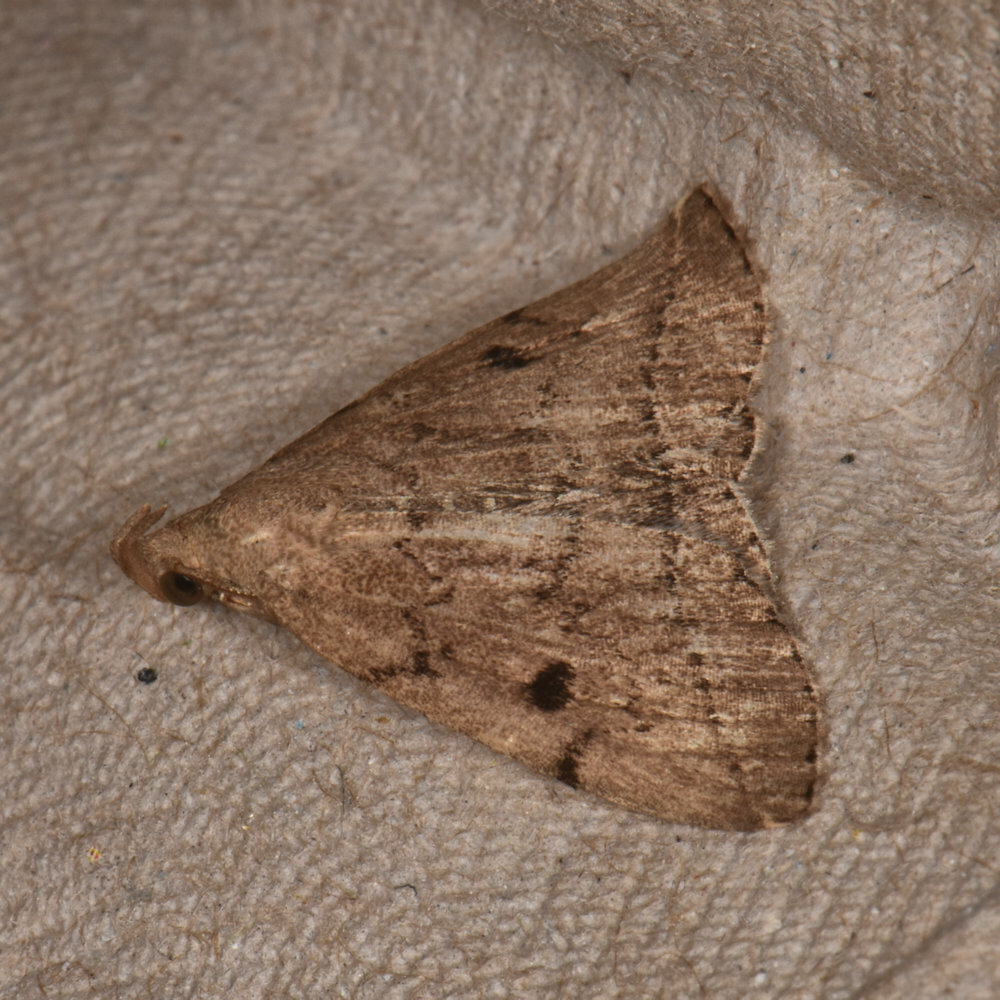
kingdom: Animalia
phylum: Arthropoda
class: Insecta
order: Lepidoptera
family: Erebidae
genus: Zanclognatha
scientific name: Zanclognatha dentata
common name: Toothed fan-foot
